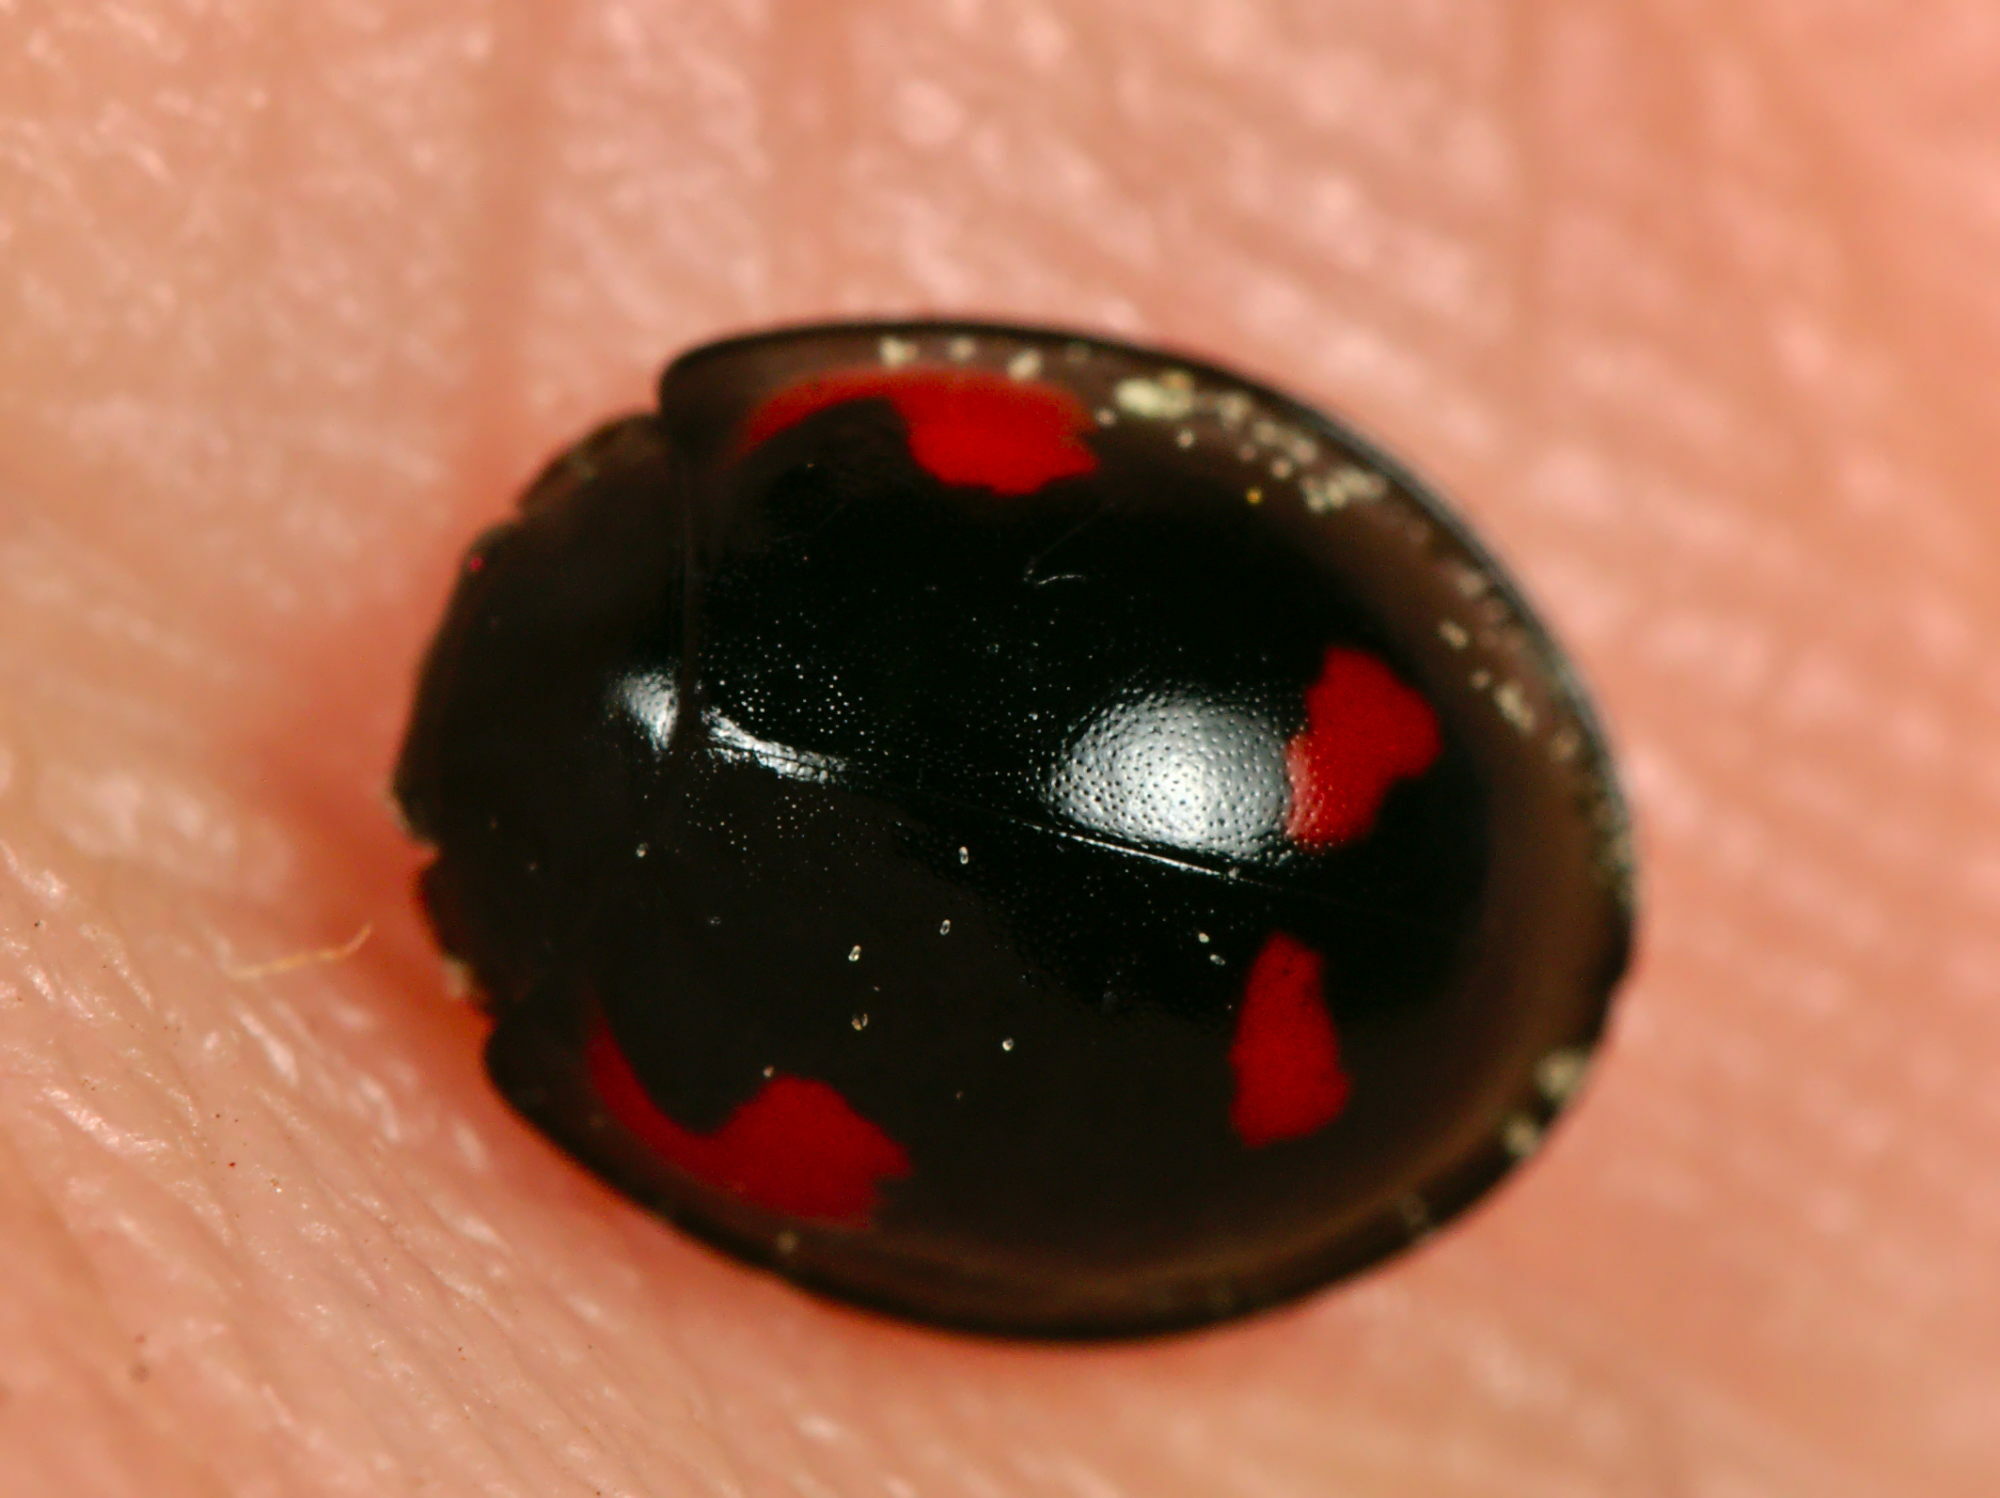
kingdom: Animalia
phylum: Arthropoda
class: Insecta
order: Coleoptera
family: Coccinellidae
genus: Brumus
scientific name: Brumus quadripustulatus
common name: Ladybird beetle
